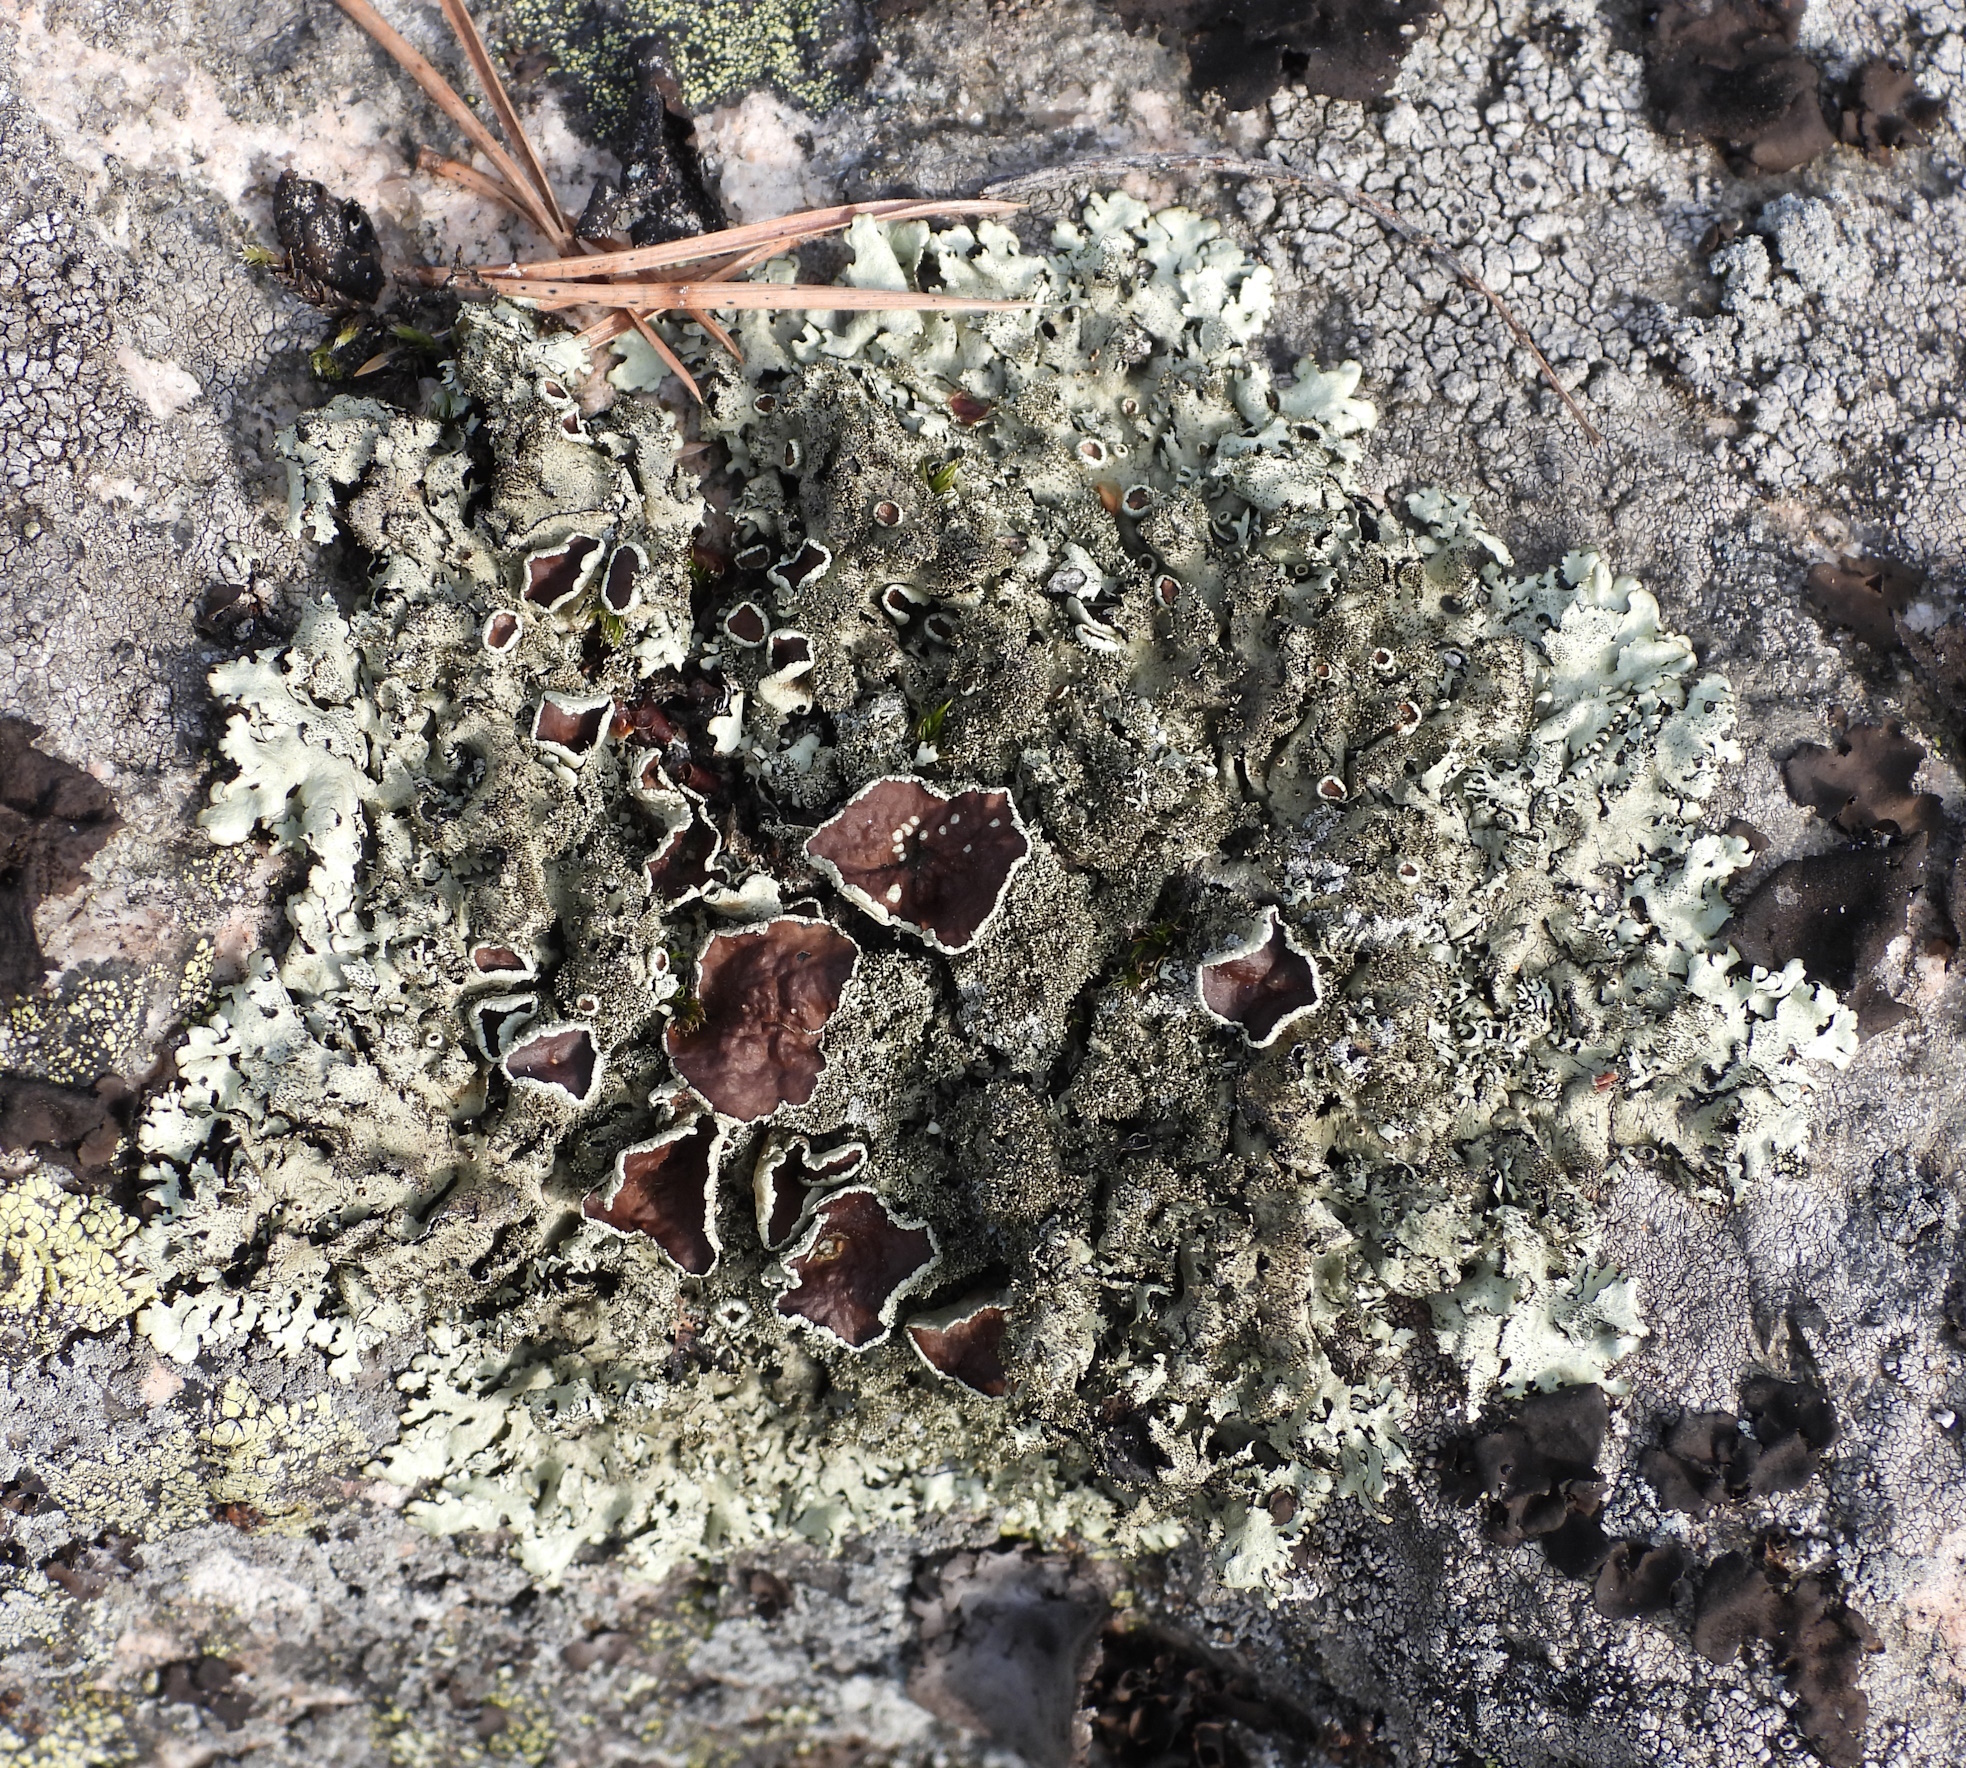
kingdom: Fungi
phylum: Ascomycota
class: Lecanoromycetes
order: Lecanorales
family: Parmeliaceae
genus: Xanthoparmelia
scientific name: Xanthoparmelia conspersa
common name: Peppered rock shield
